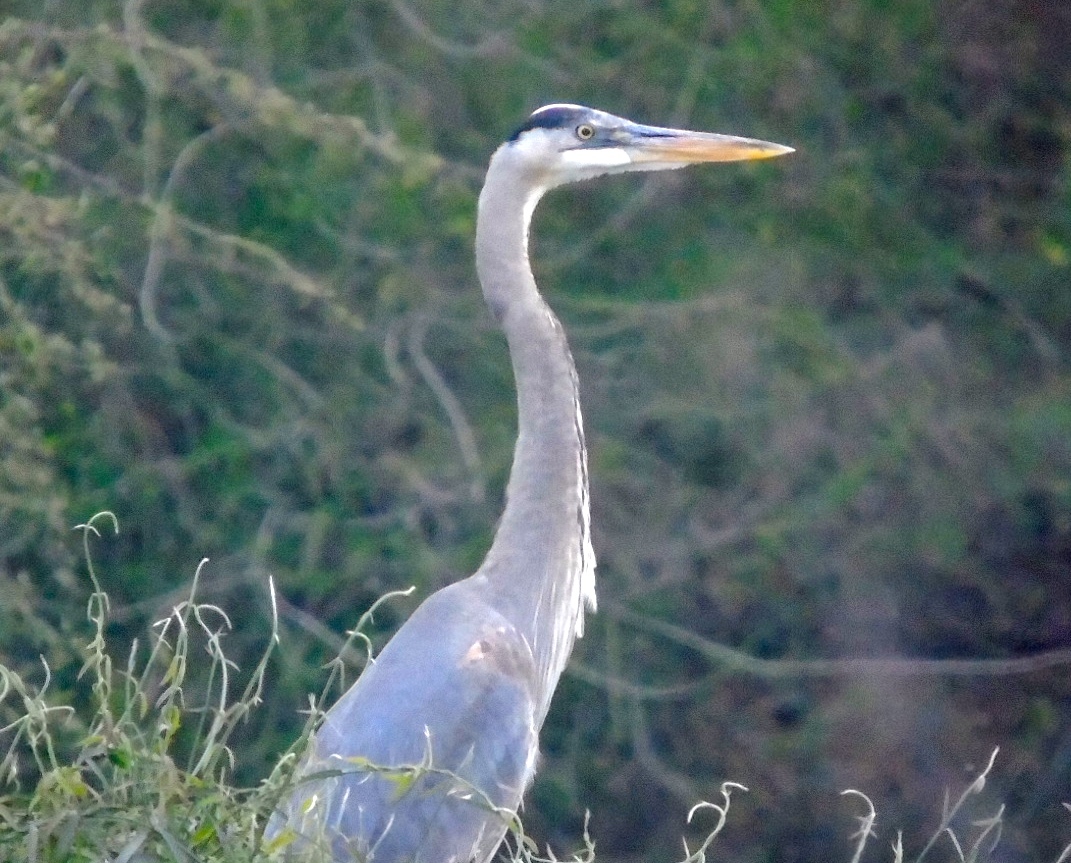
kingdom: Animalia
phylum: Chordata
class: Aves
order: Pelecaniformes
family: Ardeidae
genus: Ardea
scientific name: Ardea herodias
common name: Great blue heron
